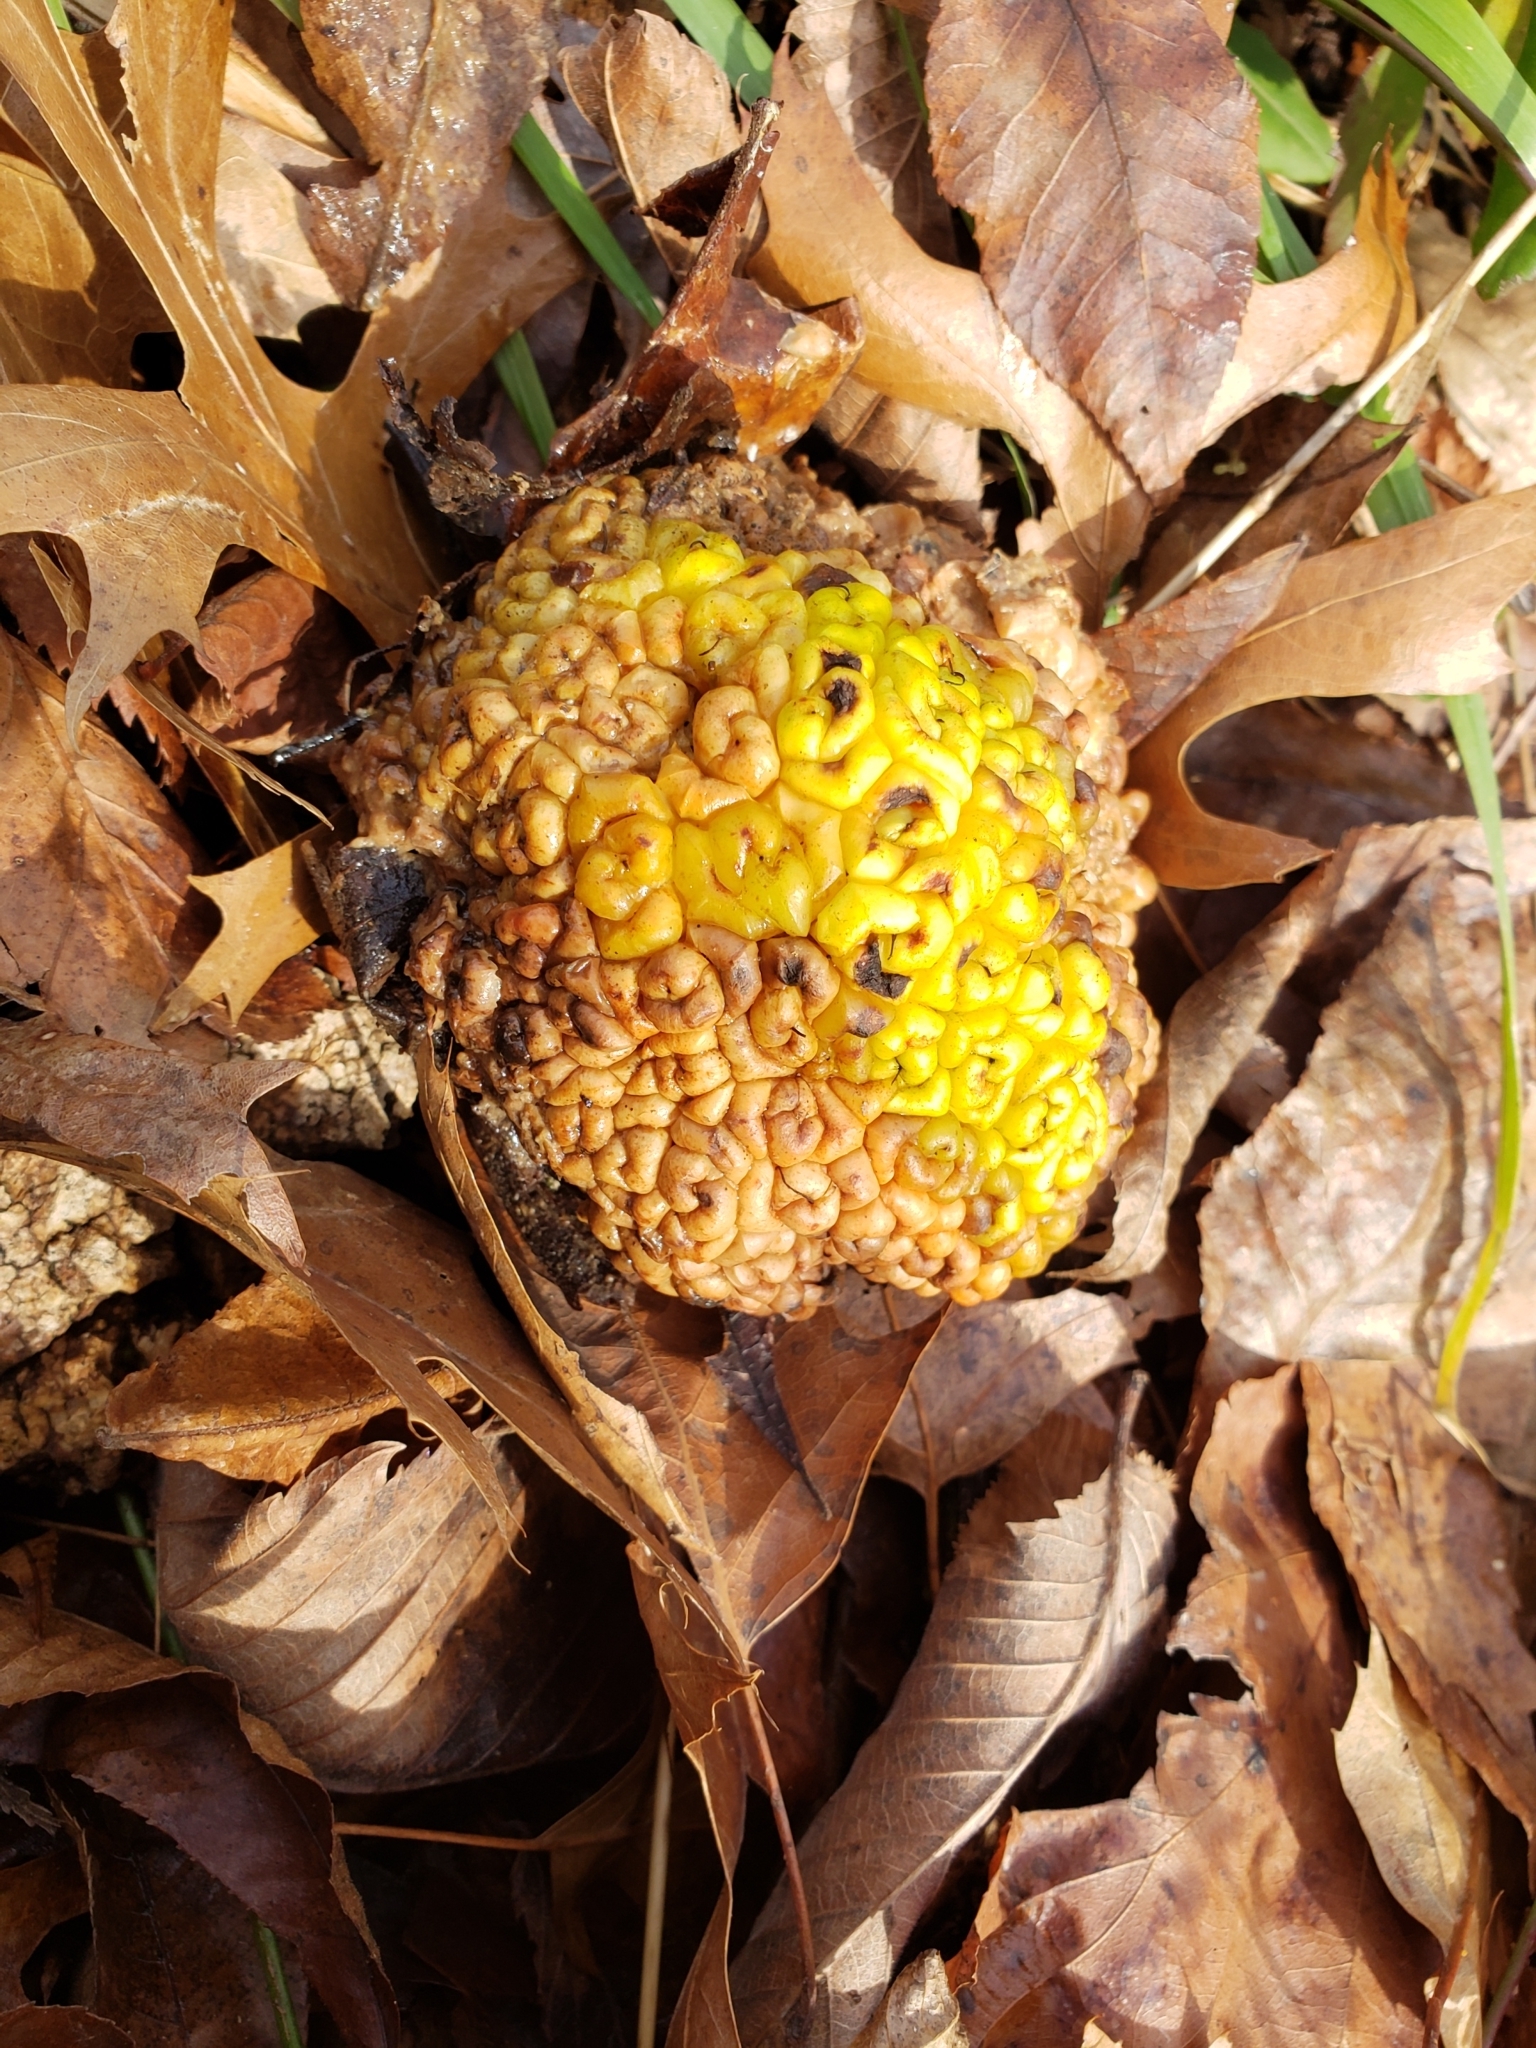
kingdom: Plantae
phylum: Tracheophyta
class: Magnoliopsida
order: Rosales
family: Moraceae
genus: Maclura
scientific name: Maclura pomifera
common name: Osage-orange
